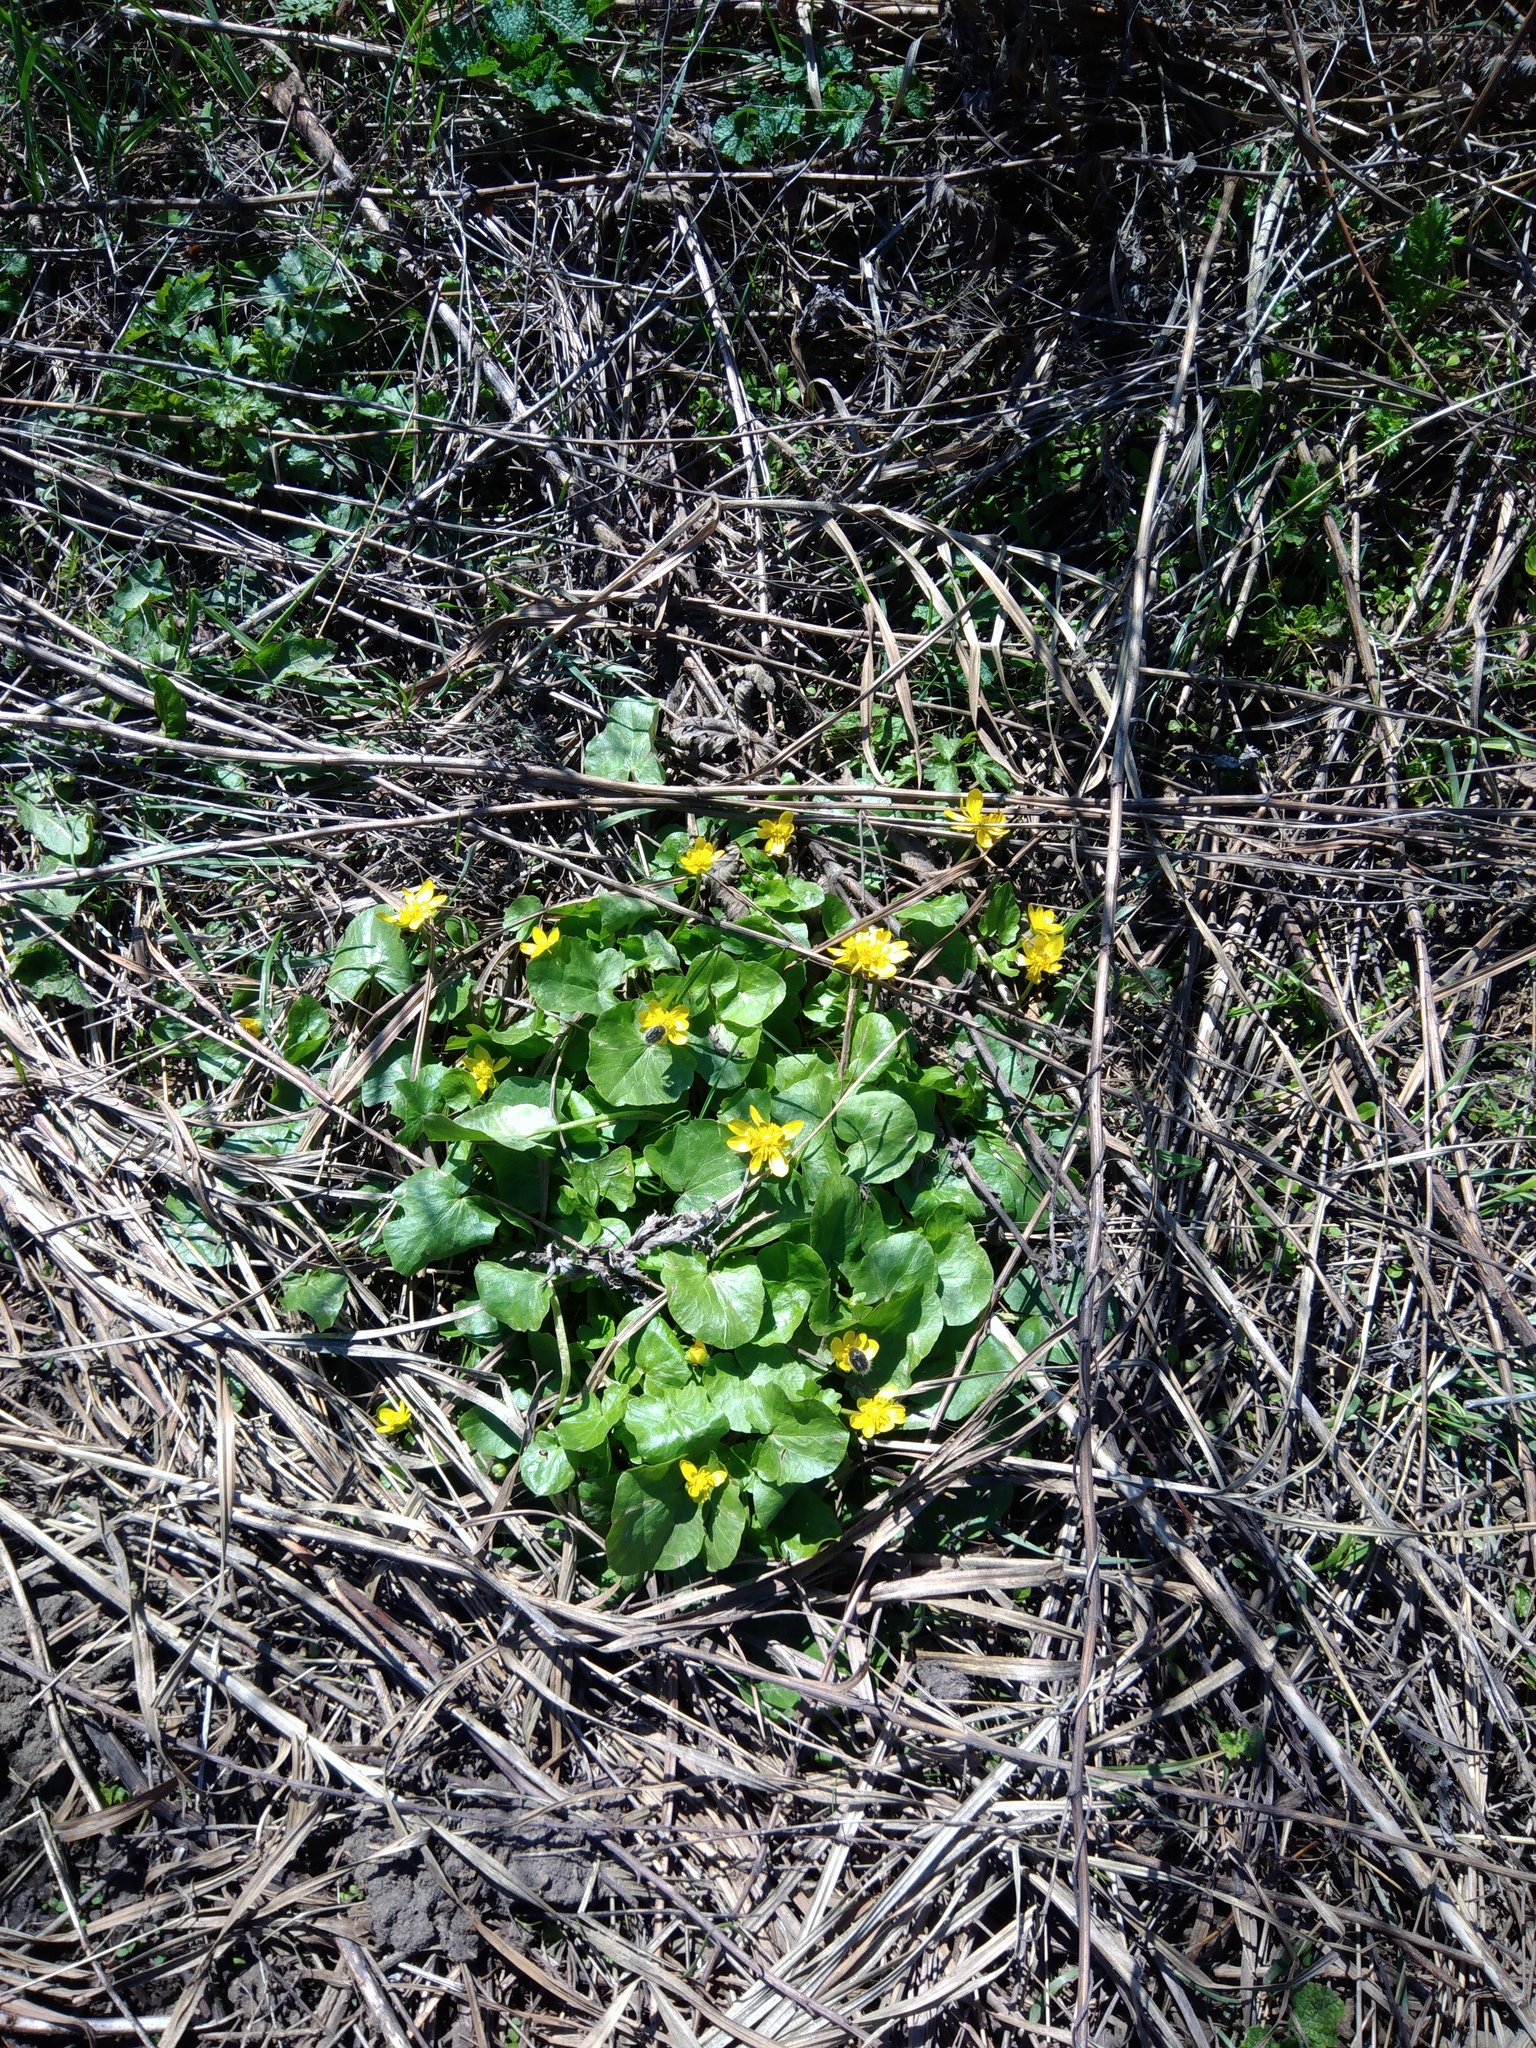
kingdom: Plantae
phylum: Tracheophyta
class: Magnoliopsida
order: Ranunculales
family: Ranunculaceae
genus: Ficaria
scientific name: Ficaria verna
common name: Lesser celandine
